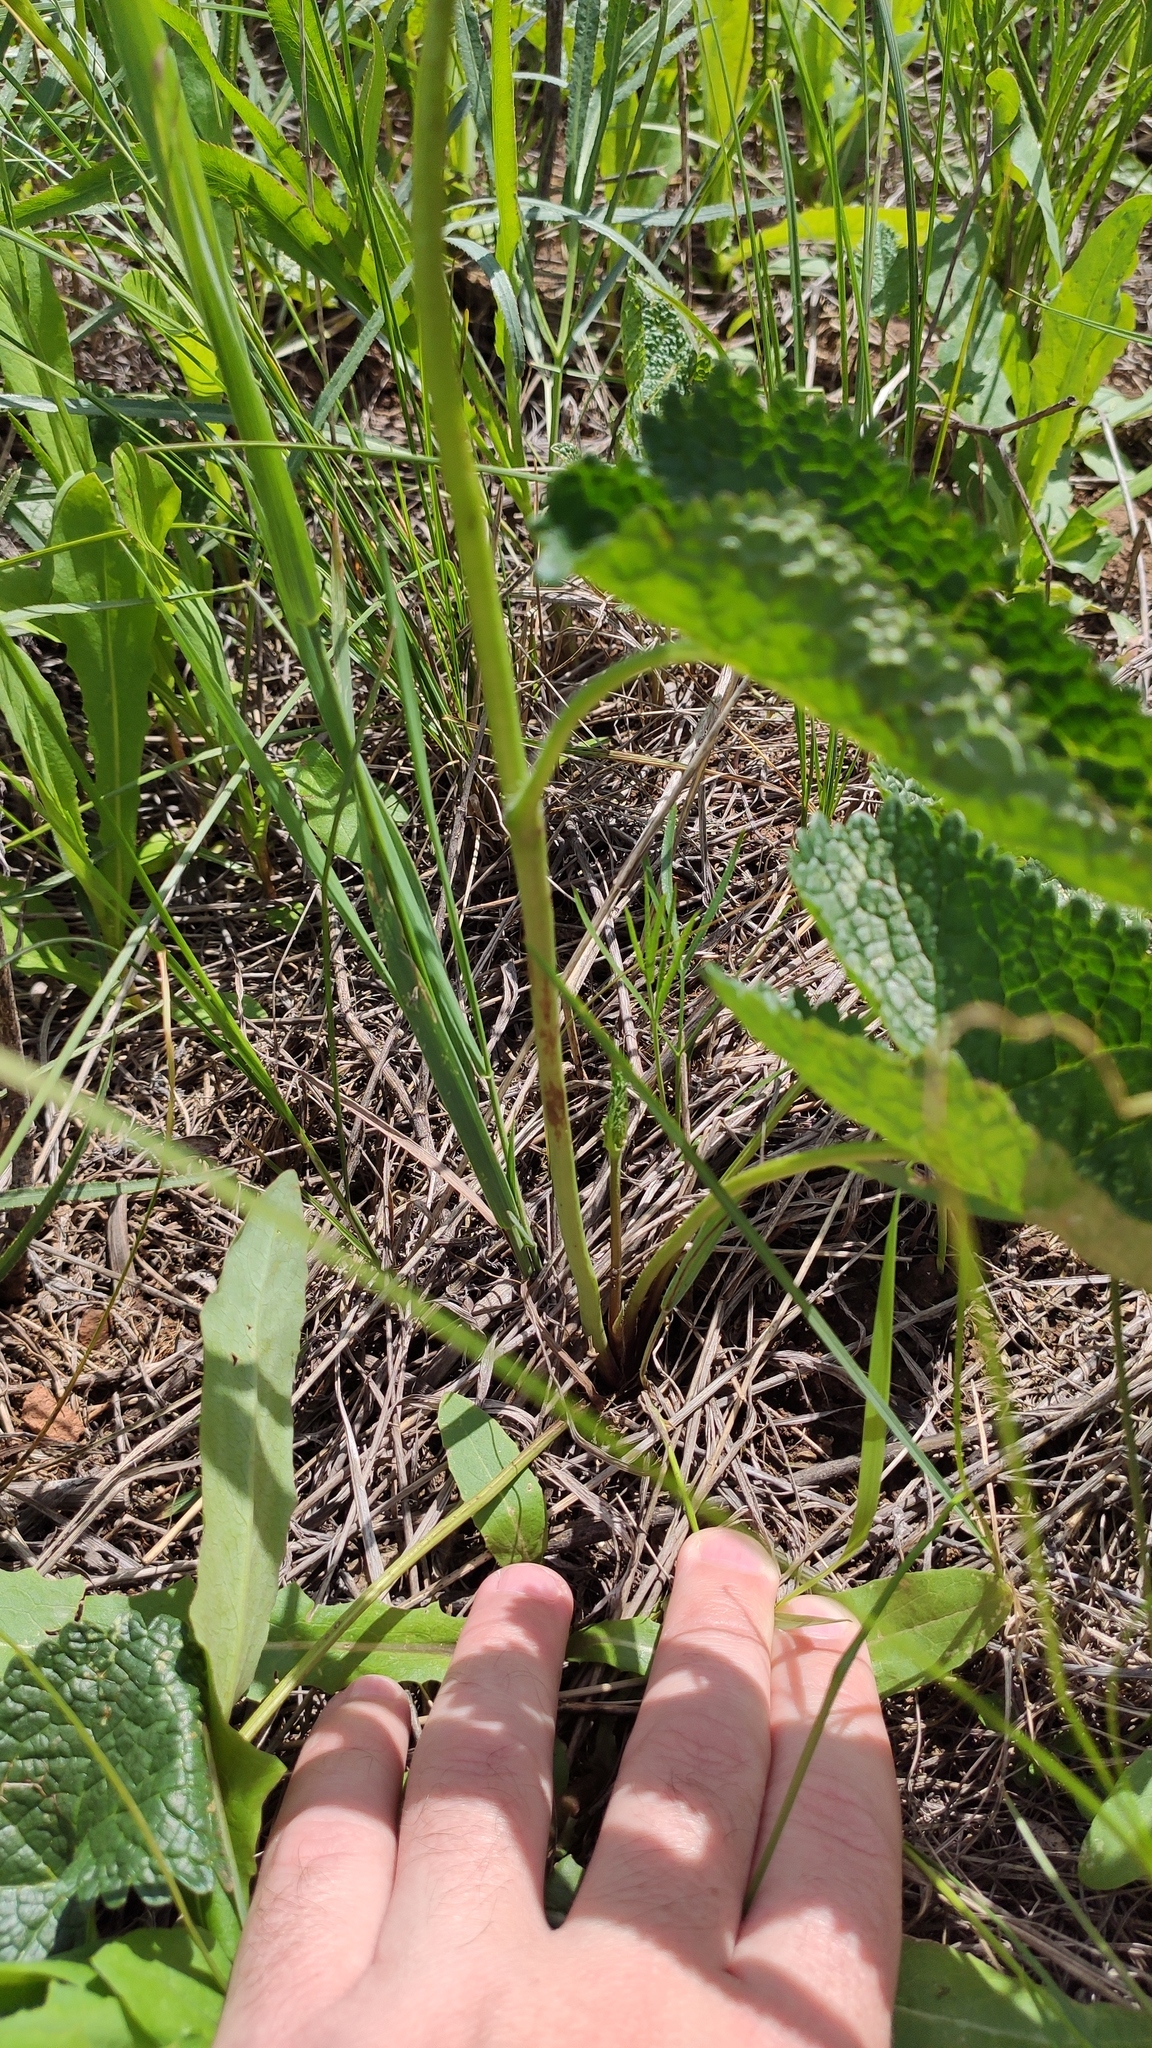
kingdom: Plantae
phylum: Tracheophyta
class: Magnoliopsida
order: Lamiales
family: Lamiaceae
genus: Phlomoides
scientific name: Phlomoides tuberosa
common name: Tuberous jerusalem sage
